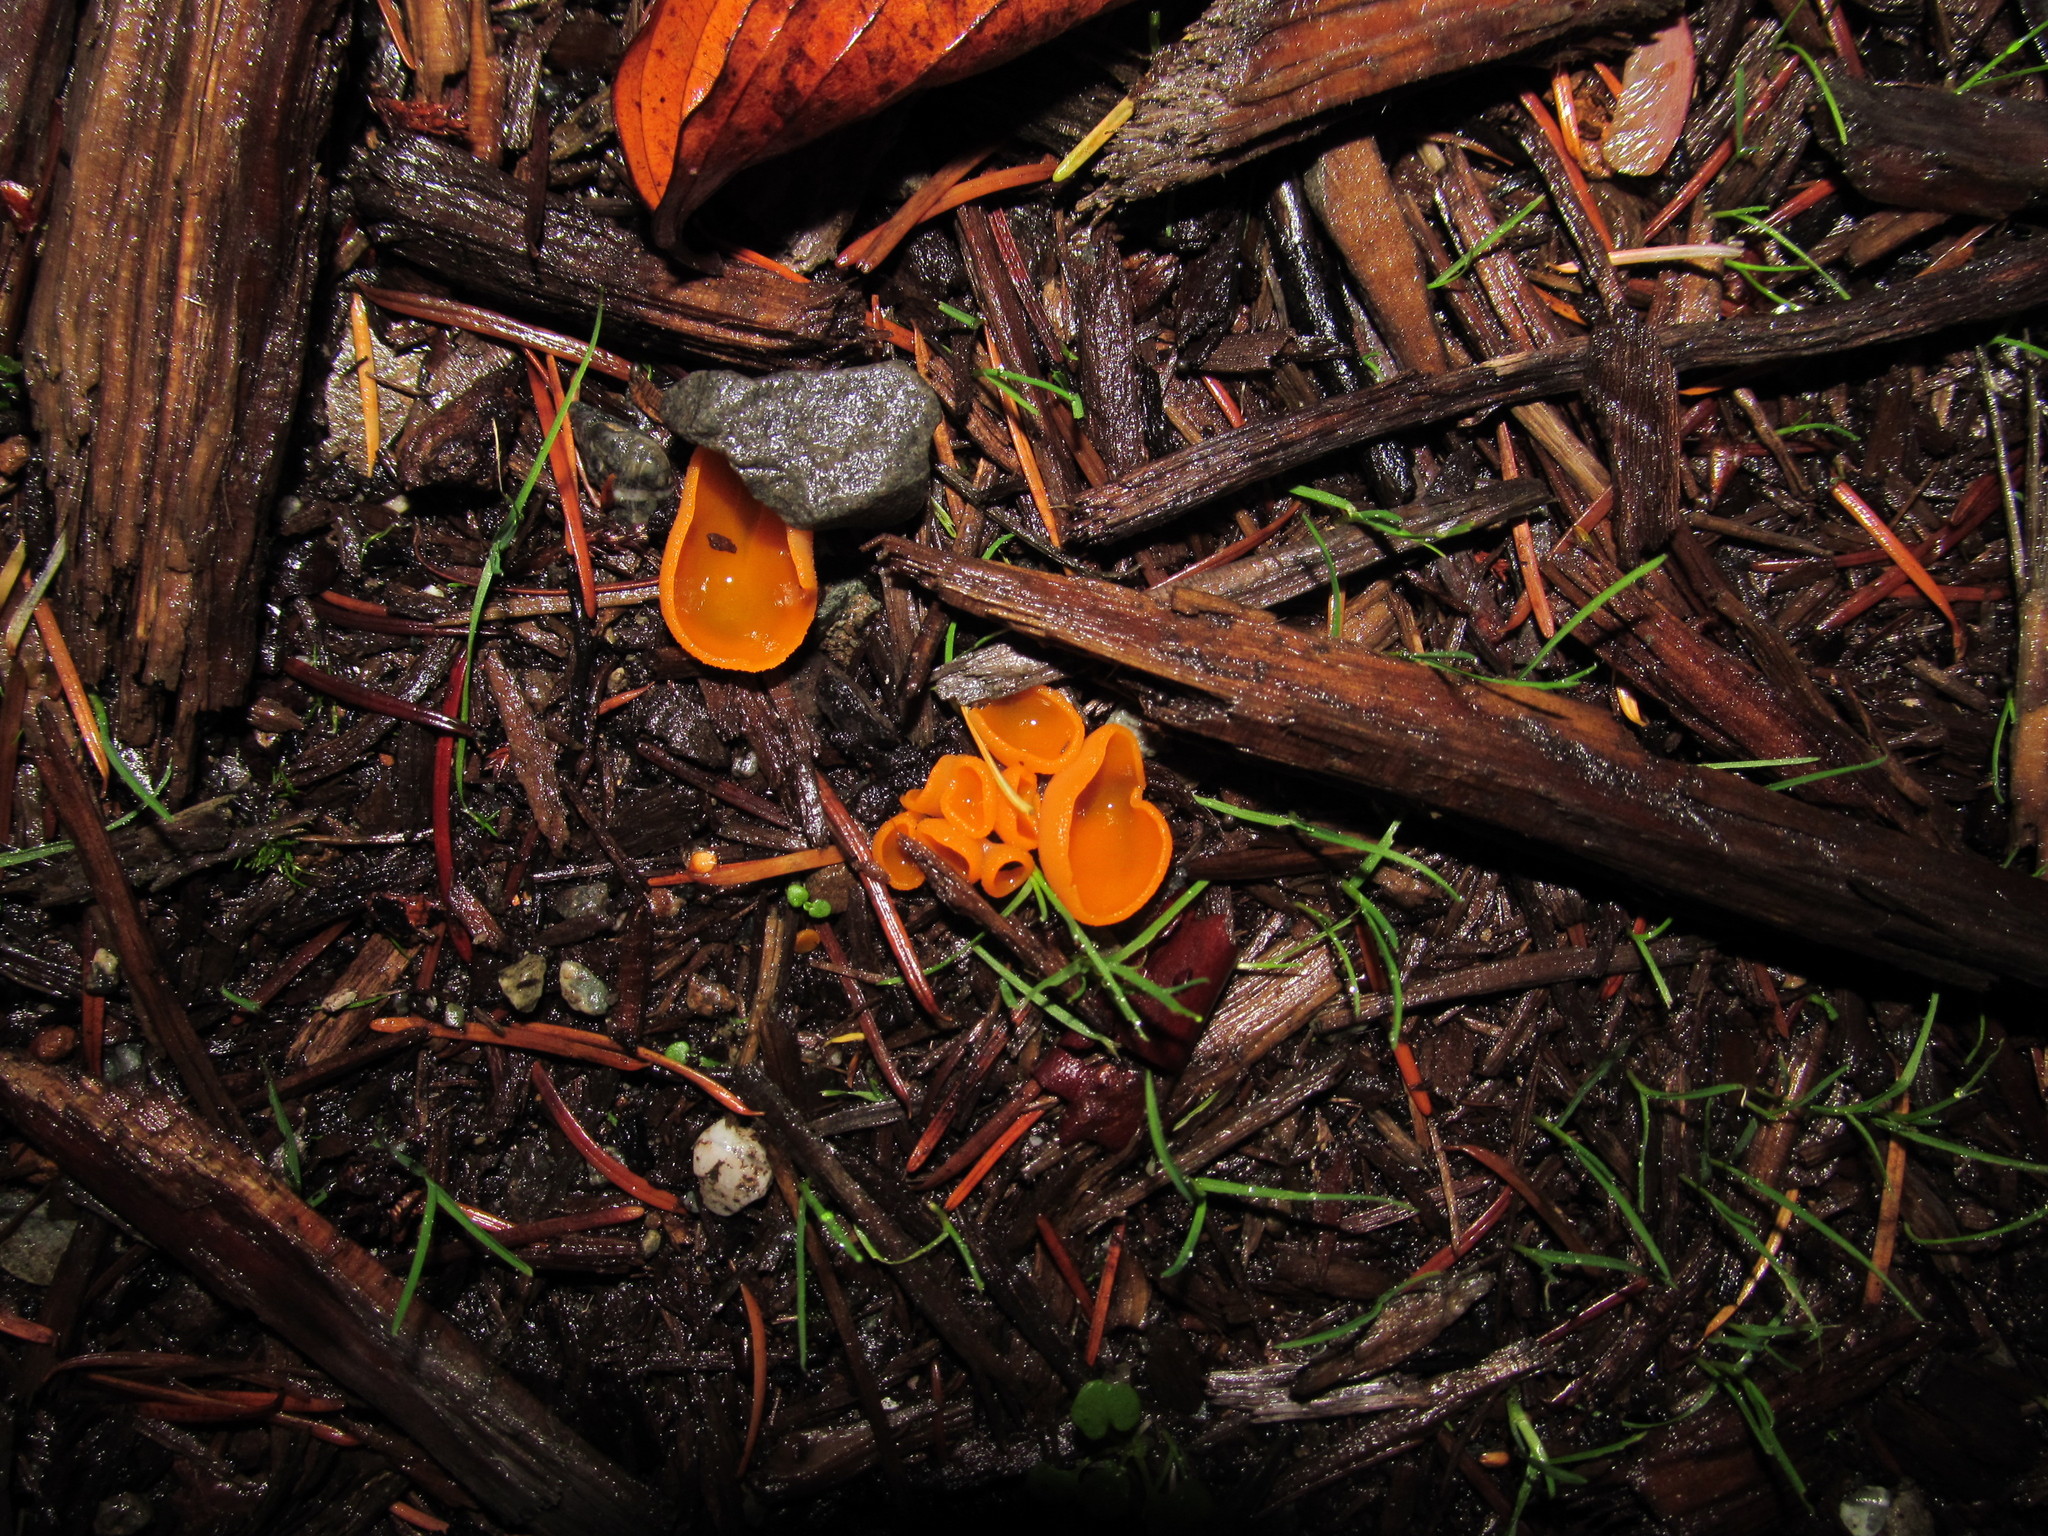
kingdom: Fungi
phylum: Ascomycota
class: Pezizomycetes
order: Pezizales
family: Pyronemataceae
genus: Aleuria
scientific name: Aleuria aurantia
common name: Orange peel fungus
